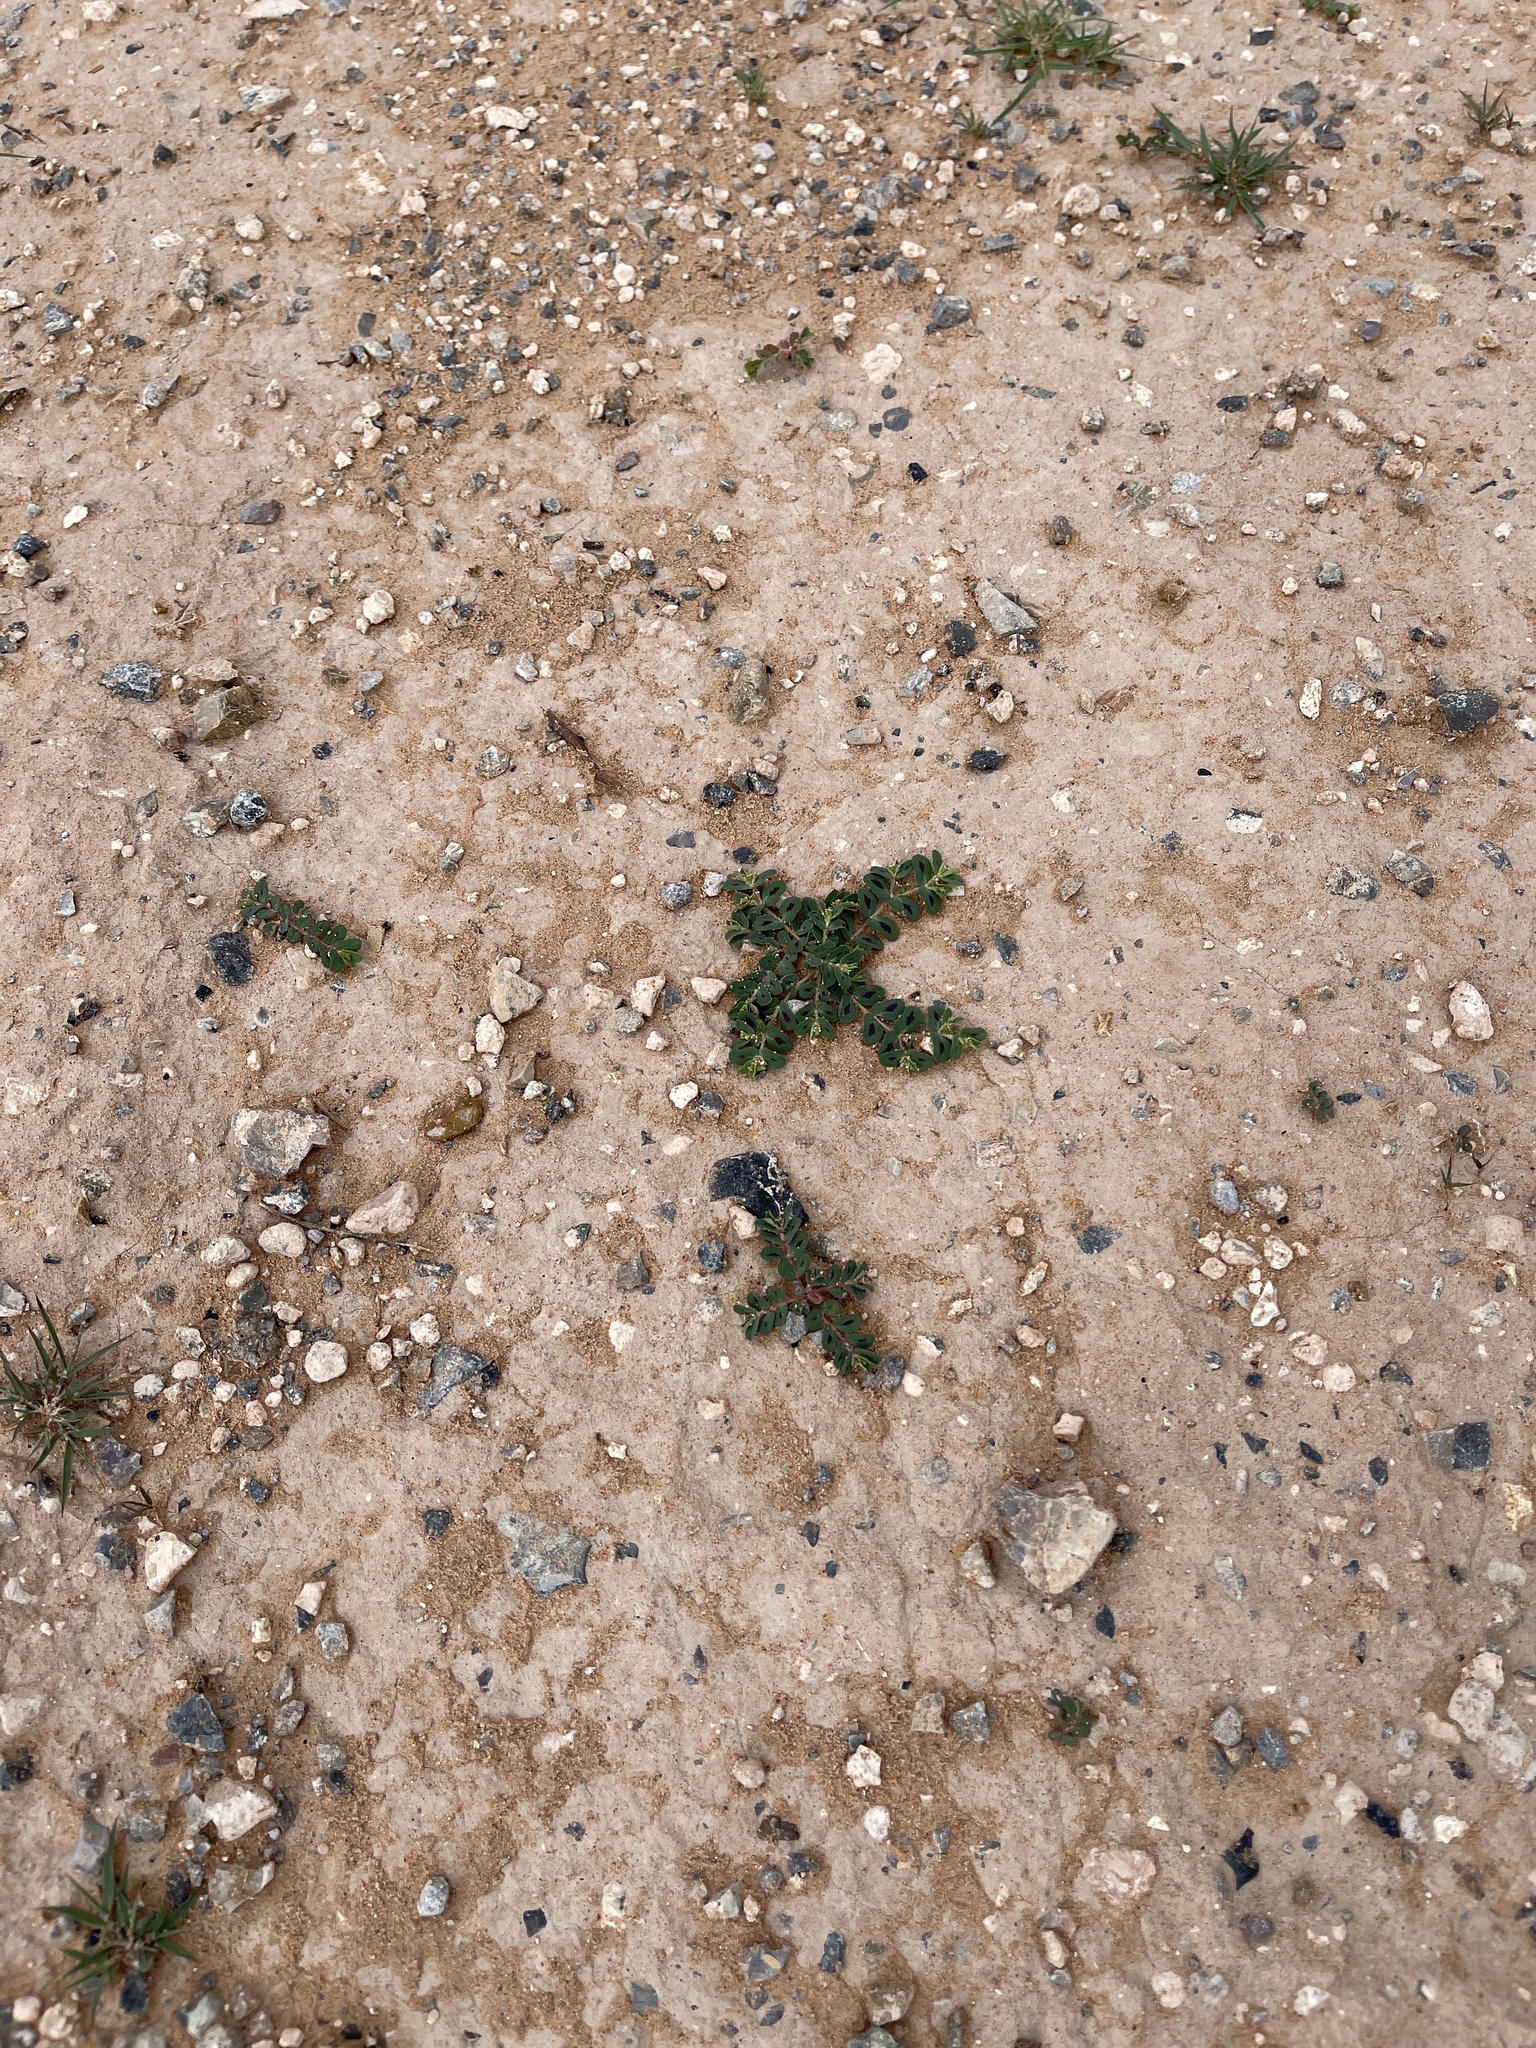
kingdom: Plantae
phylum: Tracheophyta
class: Magnoliopsida
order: Malpighiales
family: Euphorbiaceae
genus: Euphorbia
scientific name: Euphorbia serrula
